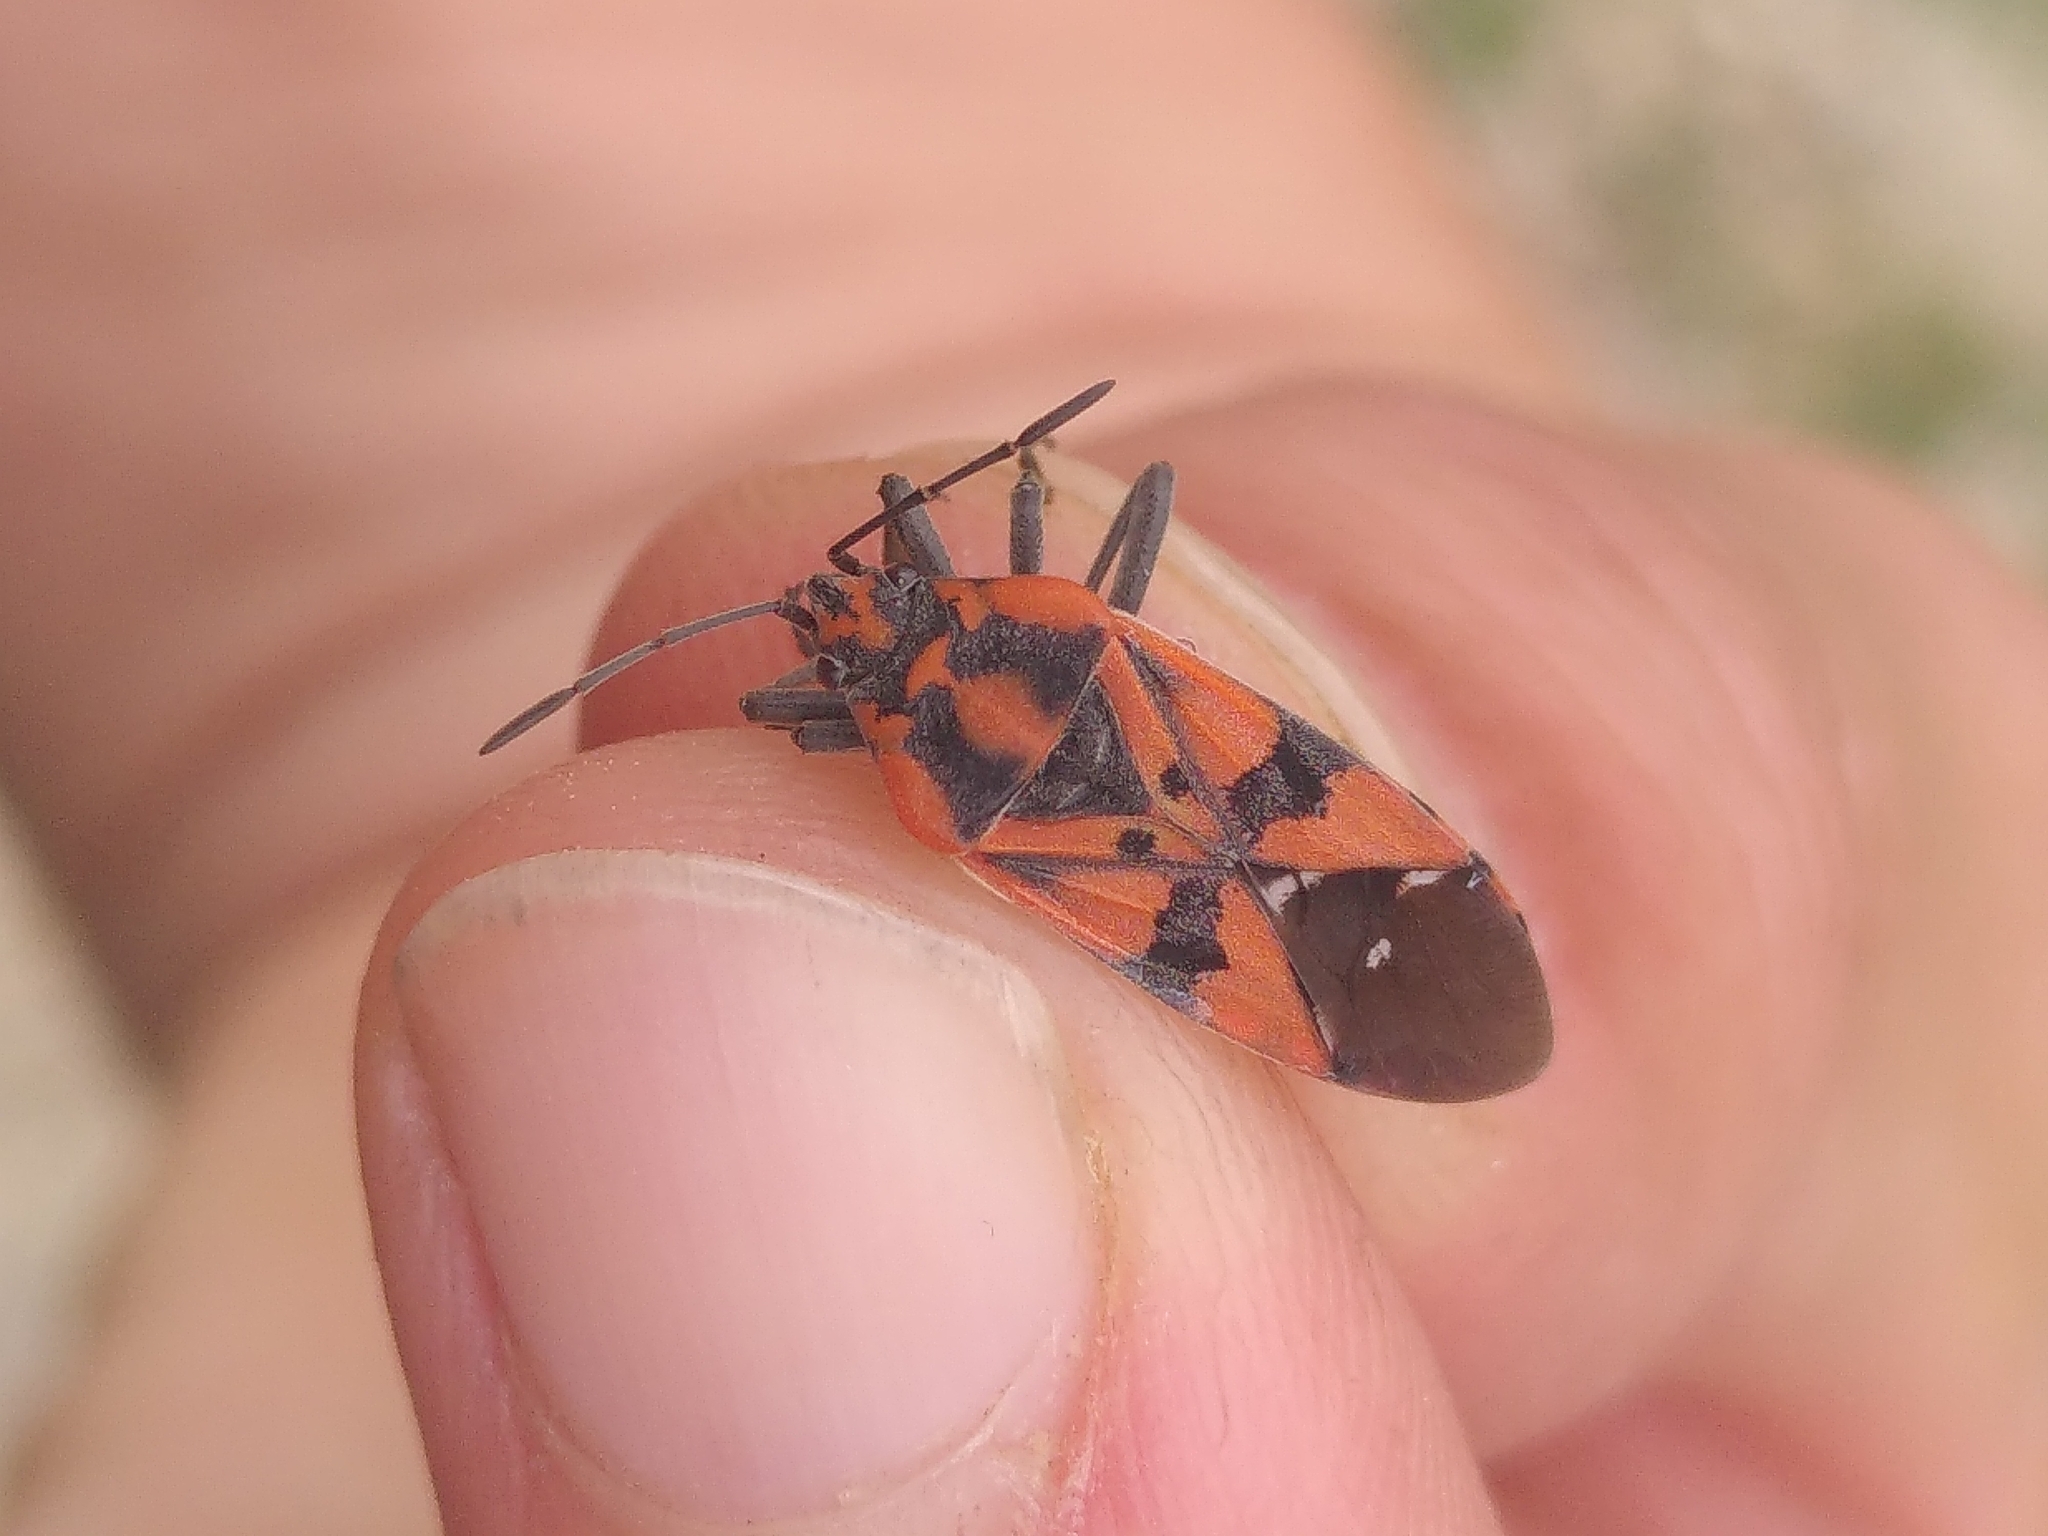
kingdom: Animalia
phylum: Arthropoda
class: Insecta
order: Hemiptera
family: Lygaeidae
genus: Spilostethus
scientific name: Spilostethus pandurus
